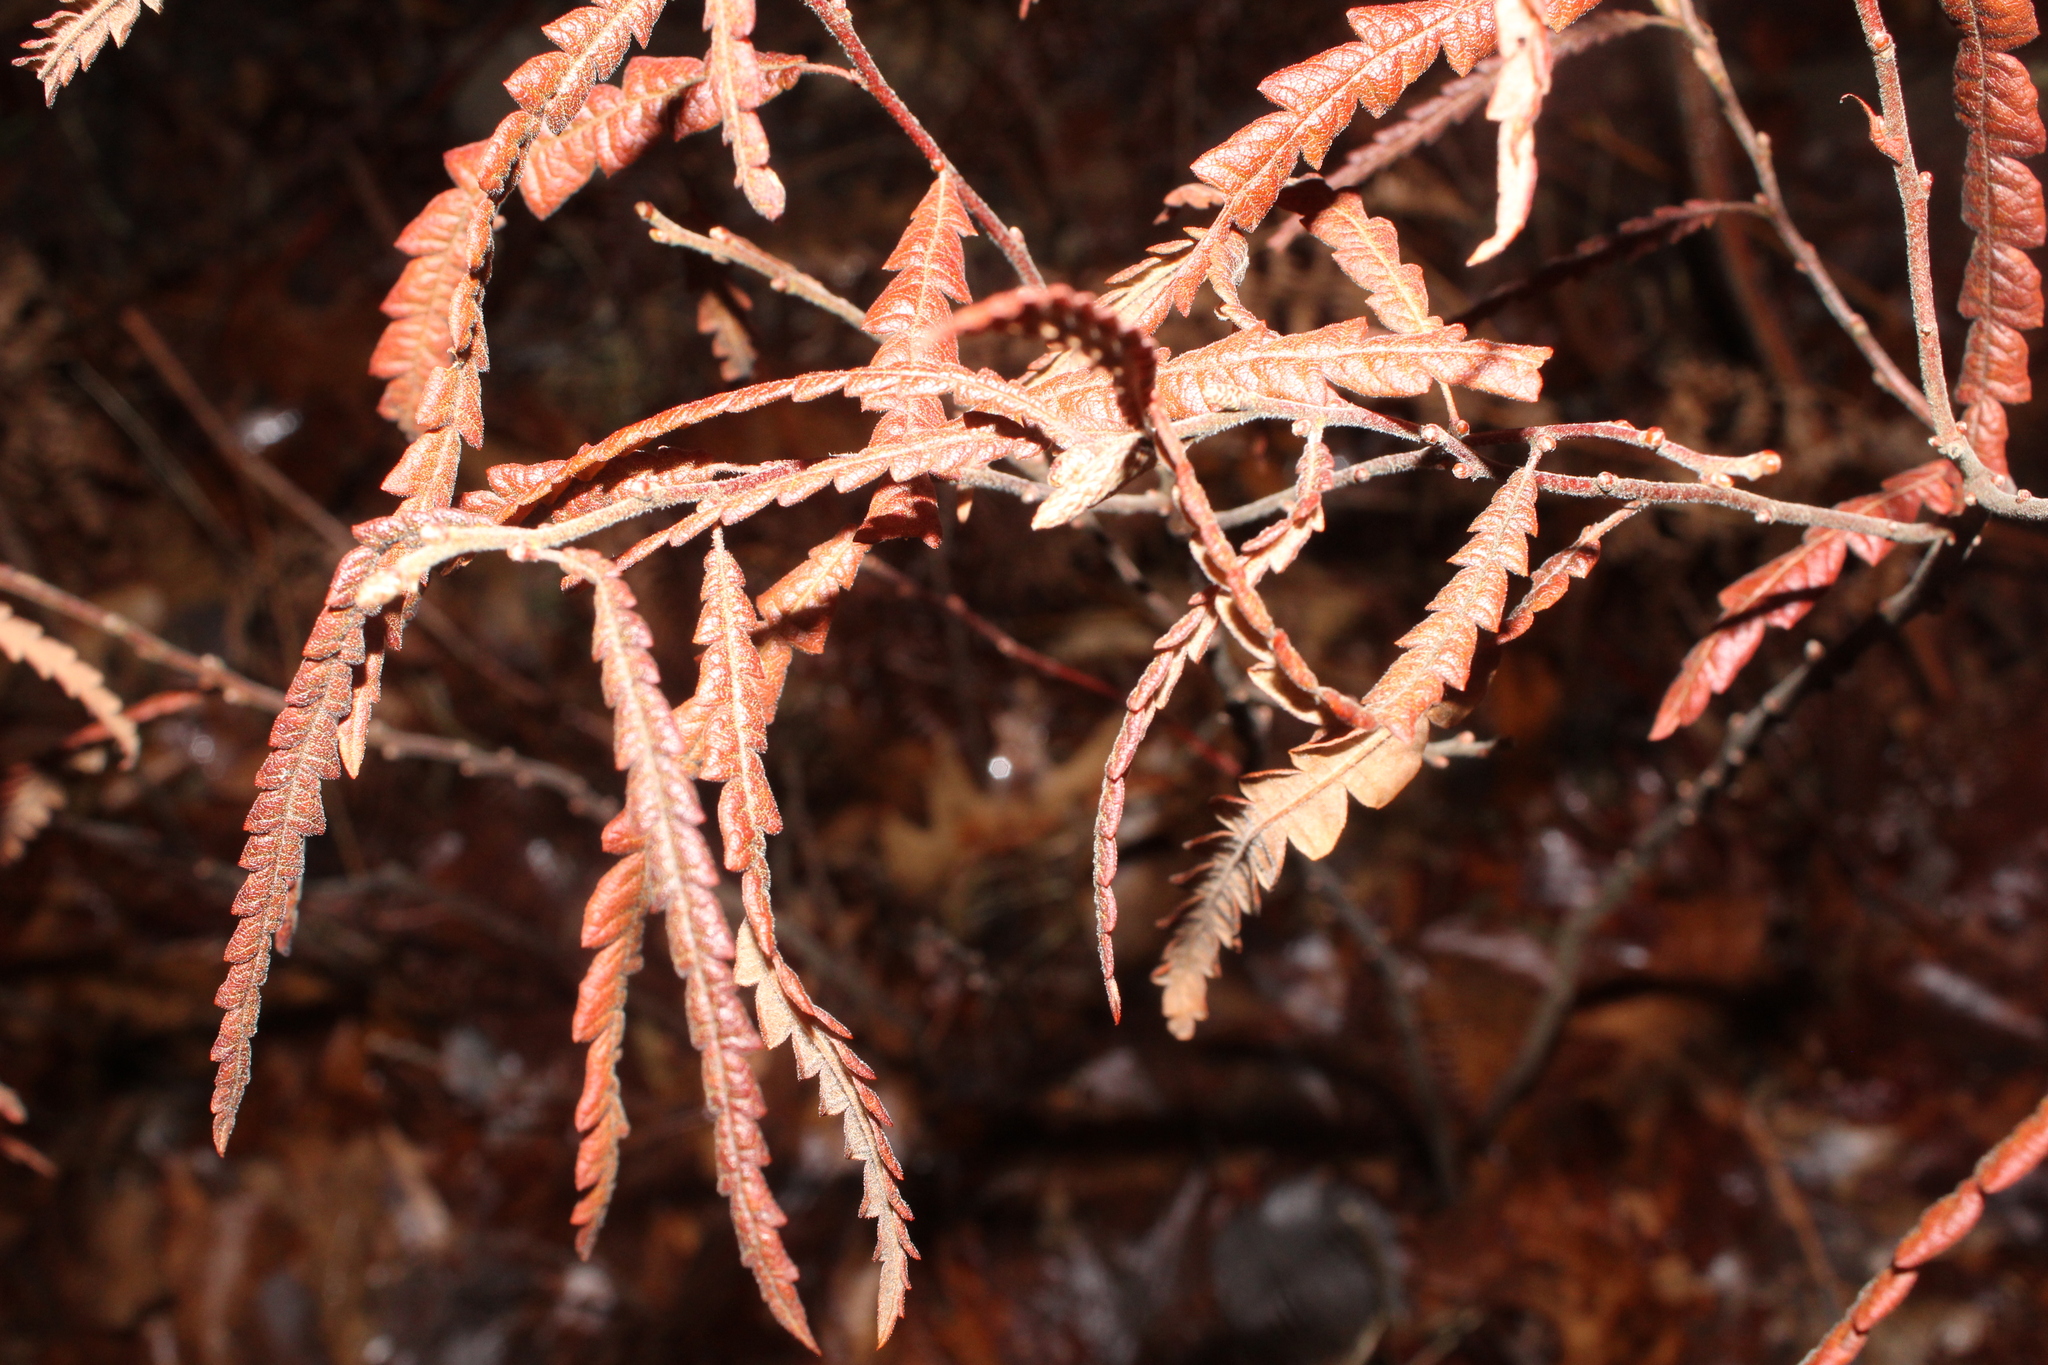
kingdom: Plantae
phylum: Tracheophyta
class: Magnoliopsida
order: Fagales
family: Myricaceae
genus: Comptonia
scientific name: Comptonia peregrina
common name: Sweet-fern
